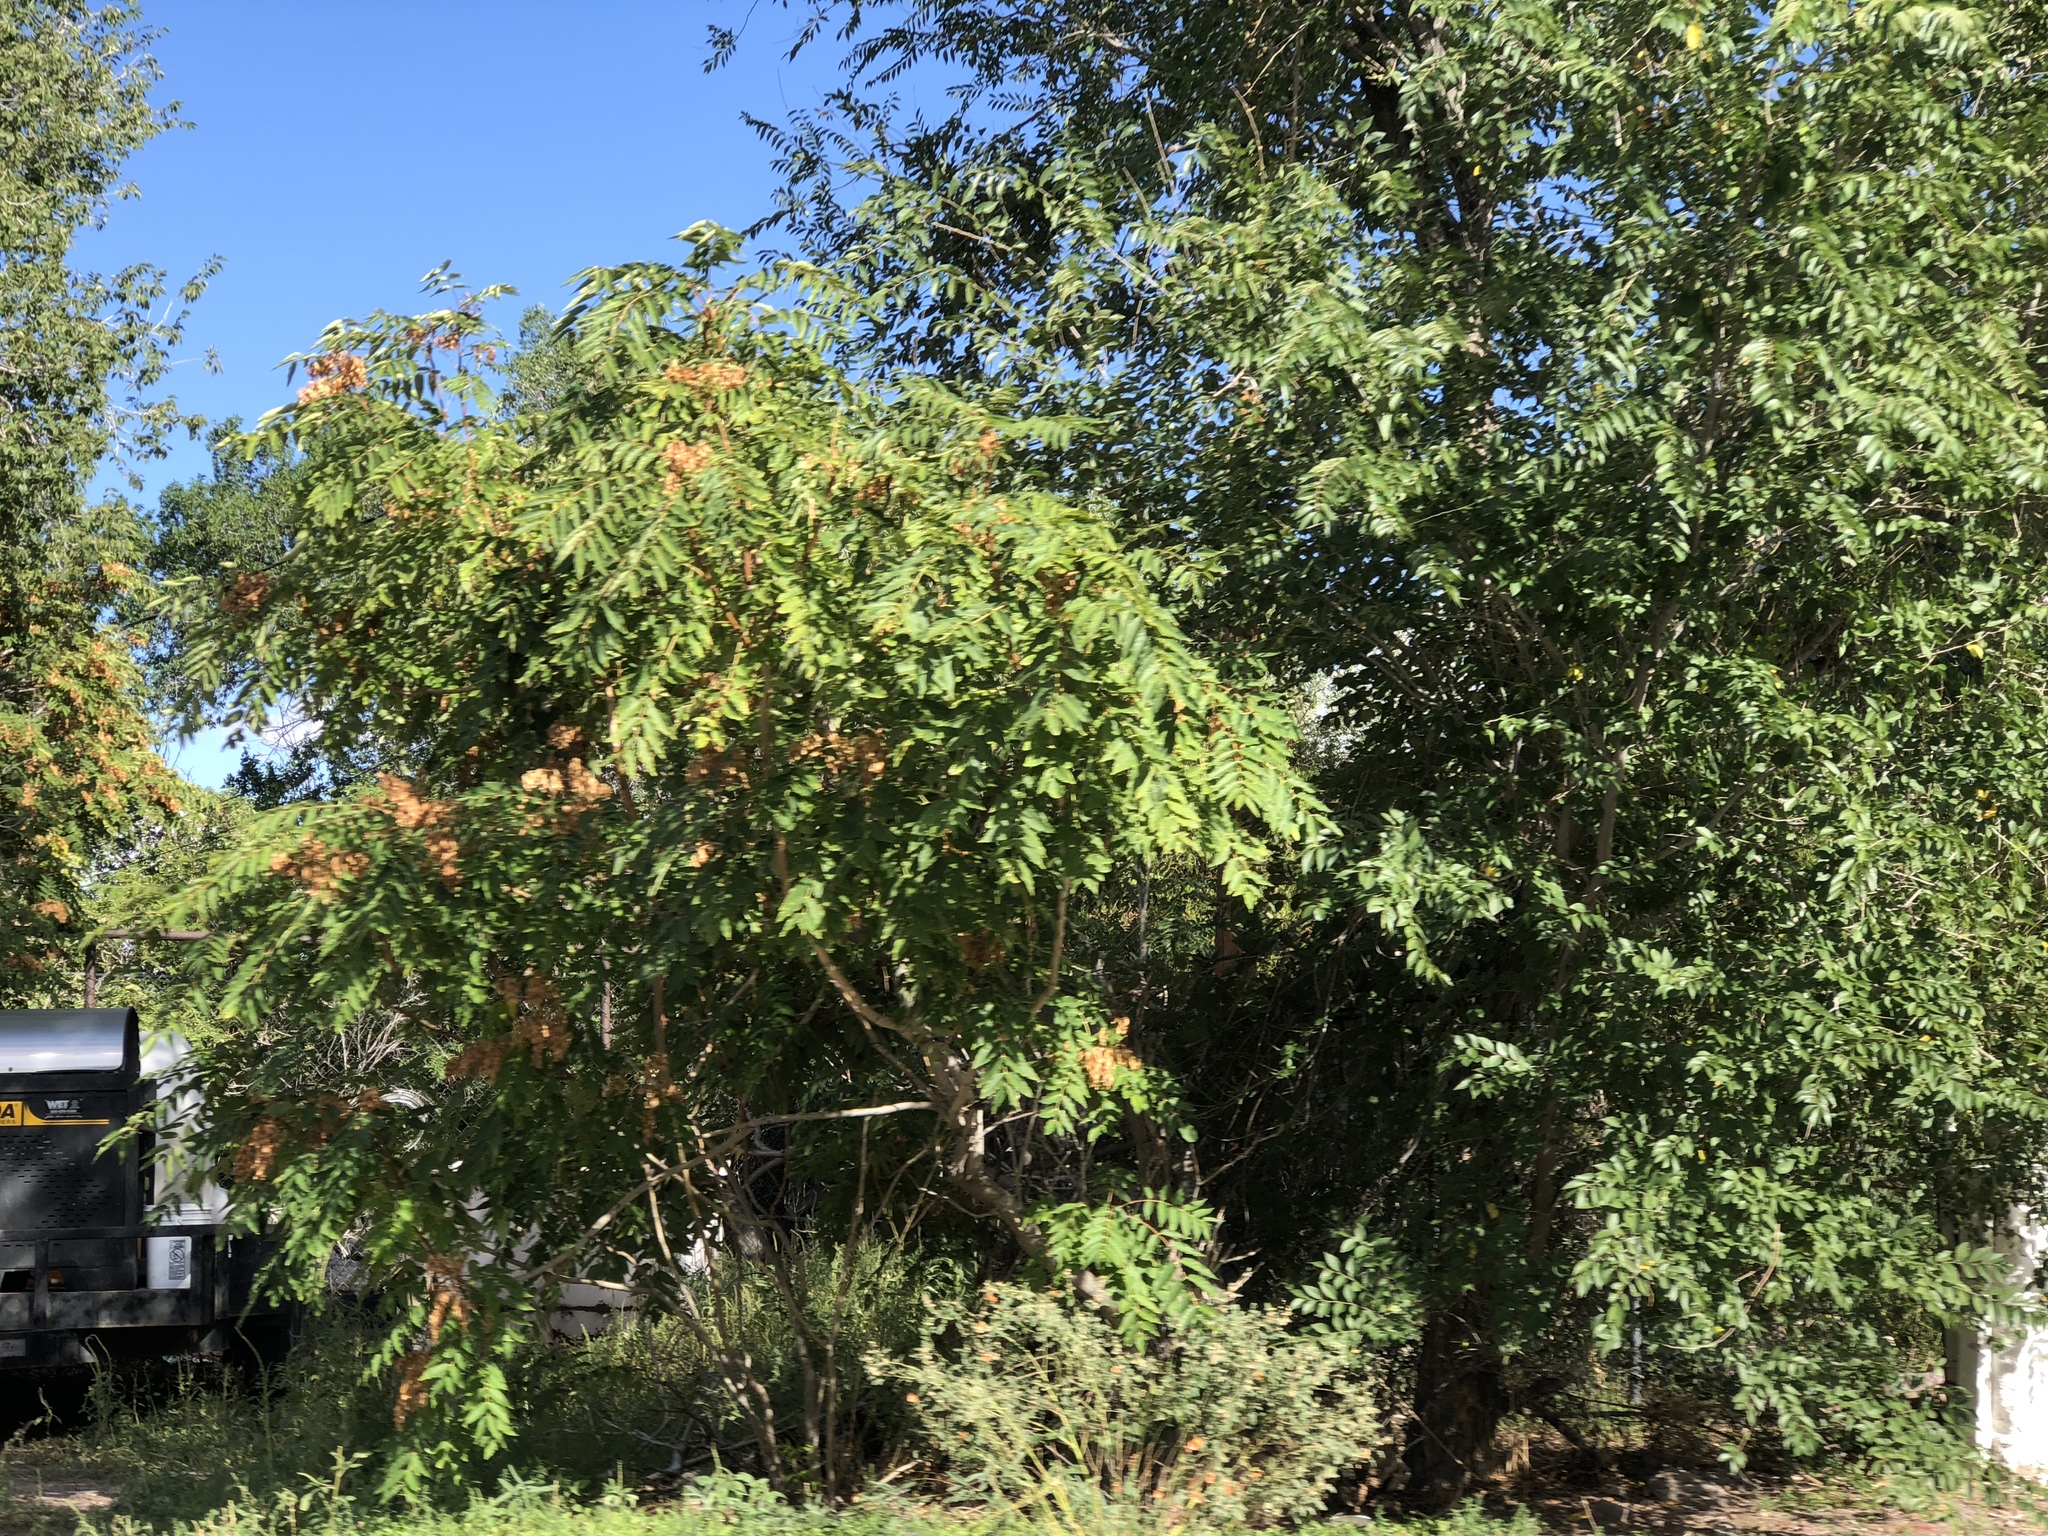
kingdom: Plantae
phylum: Tracheophyta
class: Magnoliopsida
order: Sapindales
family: Simaroubaceae
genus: Ailanthus
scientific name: Ailanthus altissima
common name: Tree-of-heaven
